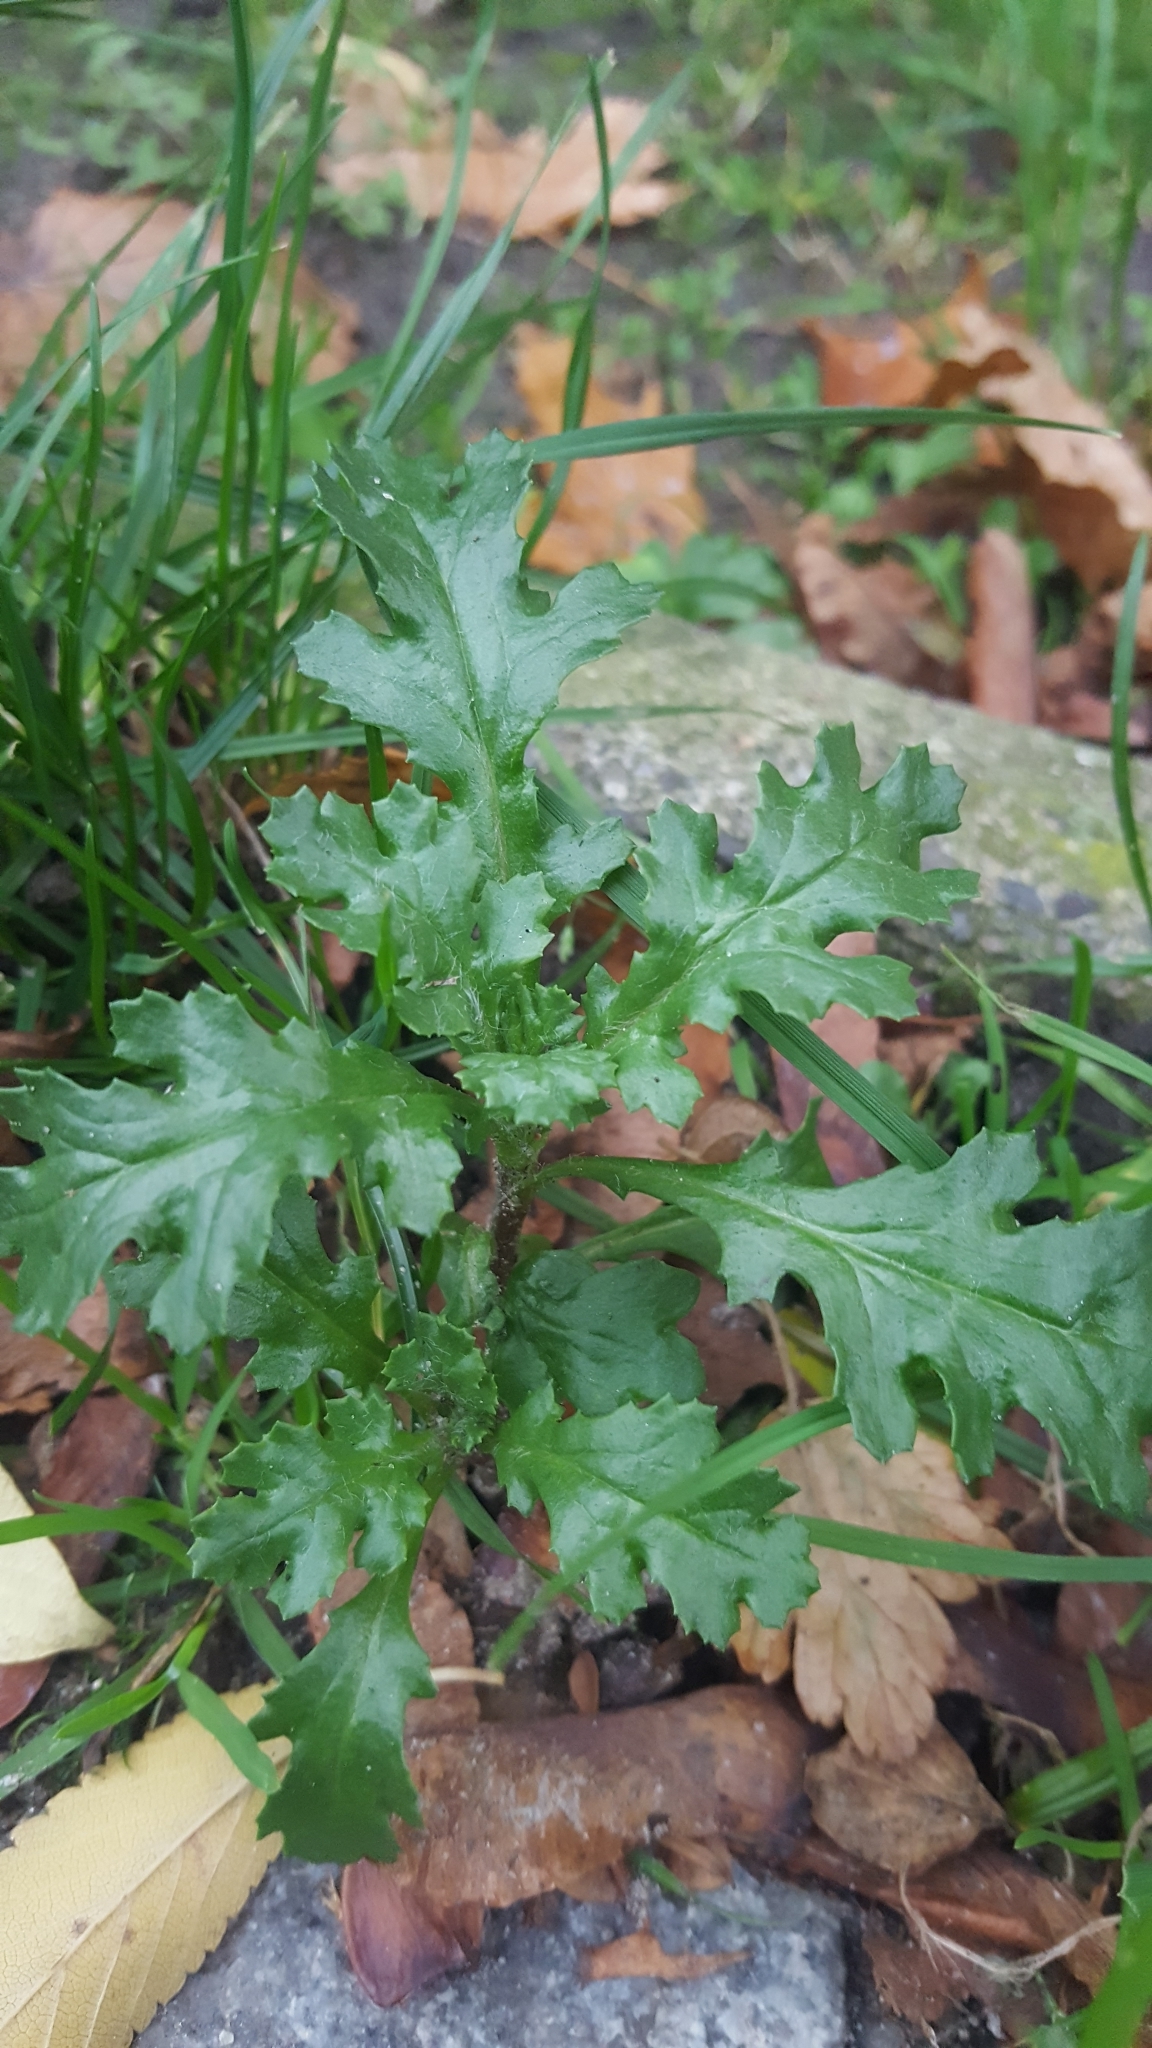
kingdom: Plantae
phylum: Tracheophyta
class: Magnoliopsida
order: Asterales
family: Asteraceae
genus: Senecio
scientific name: Senecio vulgaris
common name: Old-man-in-the-spring
